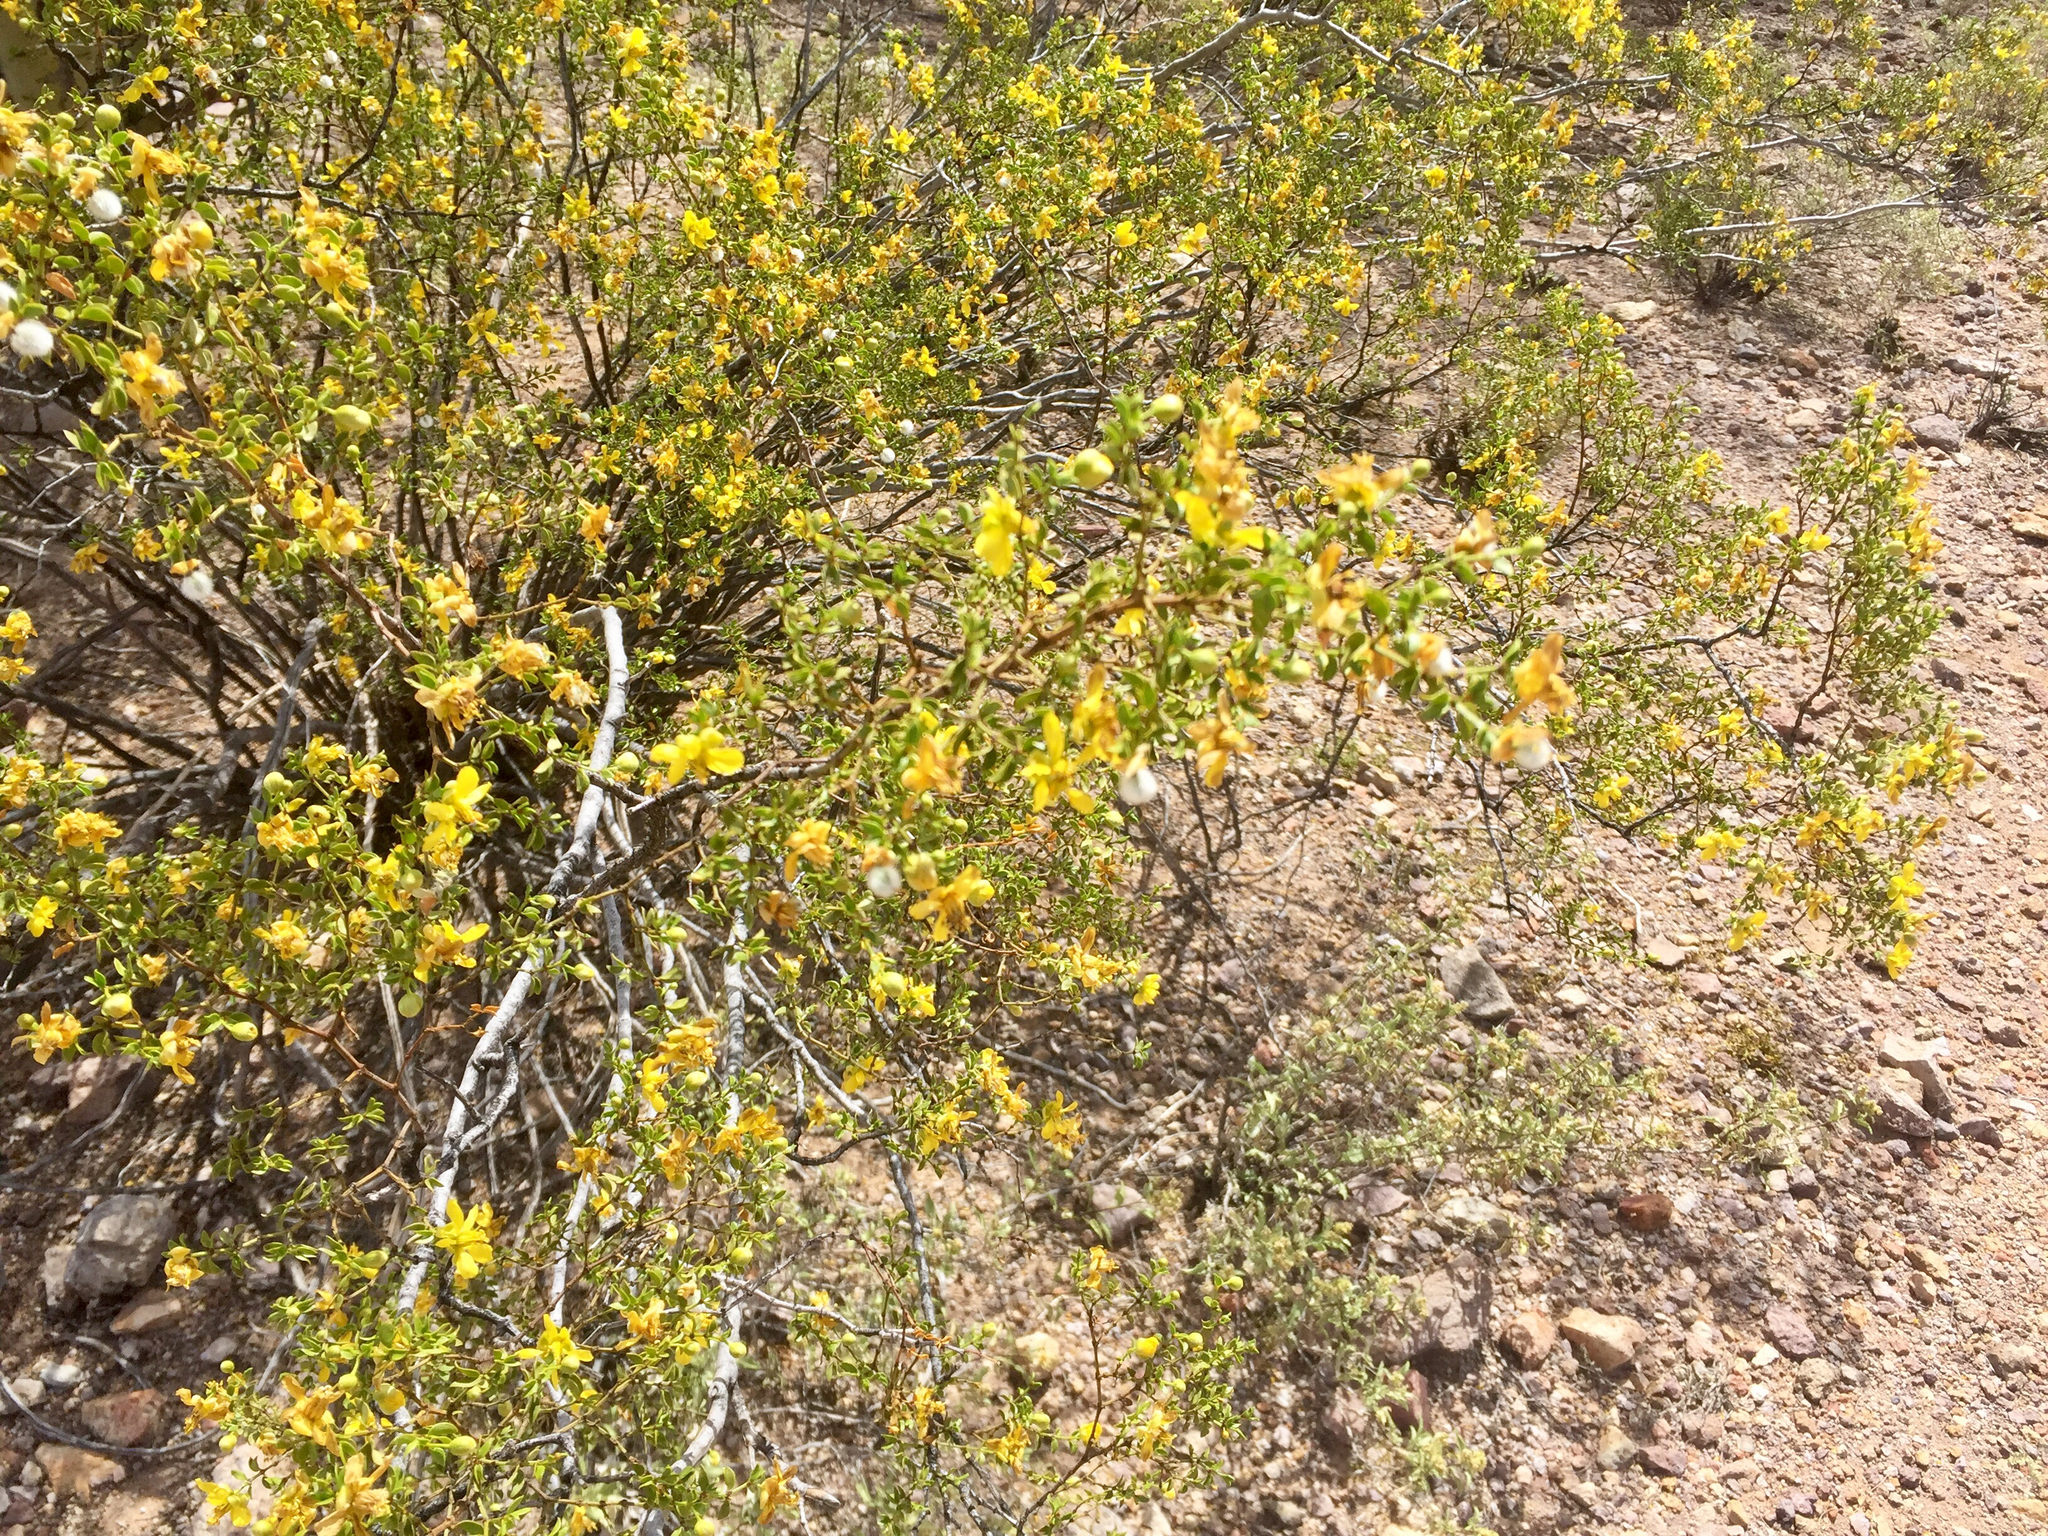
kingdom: Plantae
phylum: Tracheophyta
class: Magnoliopsida
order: Zygophyllales
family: Zygophyllaceae
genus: Larrea
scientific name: Larrea tridentata
